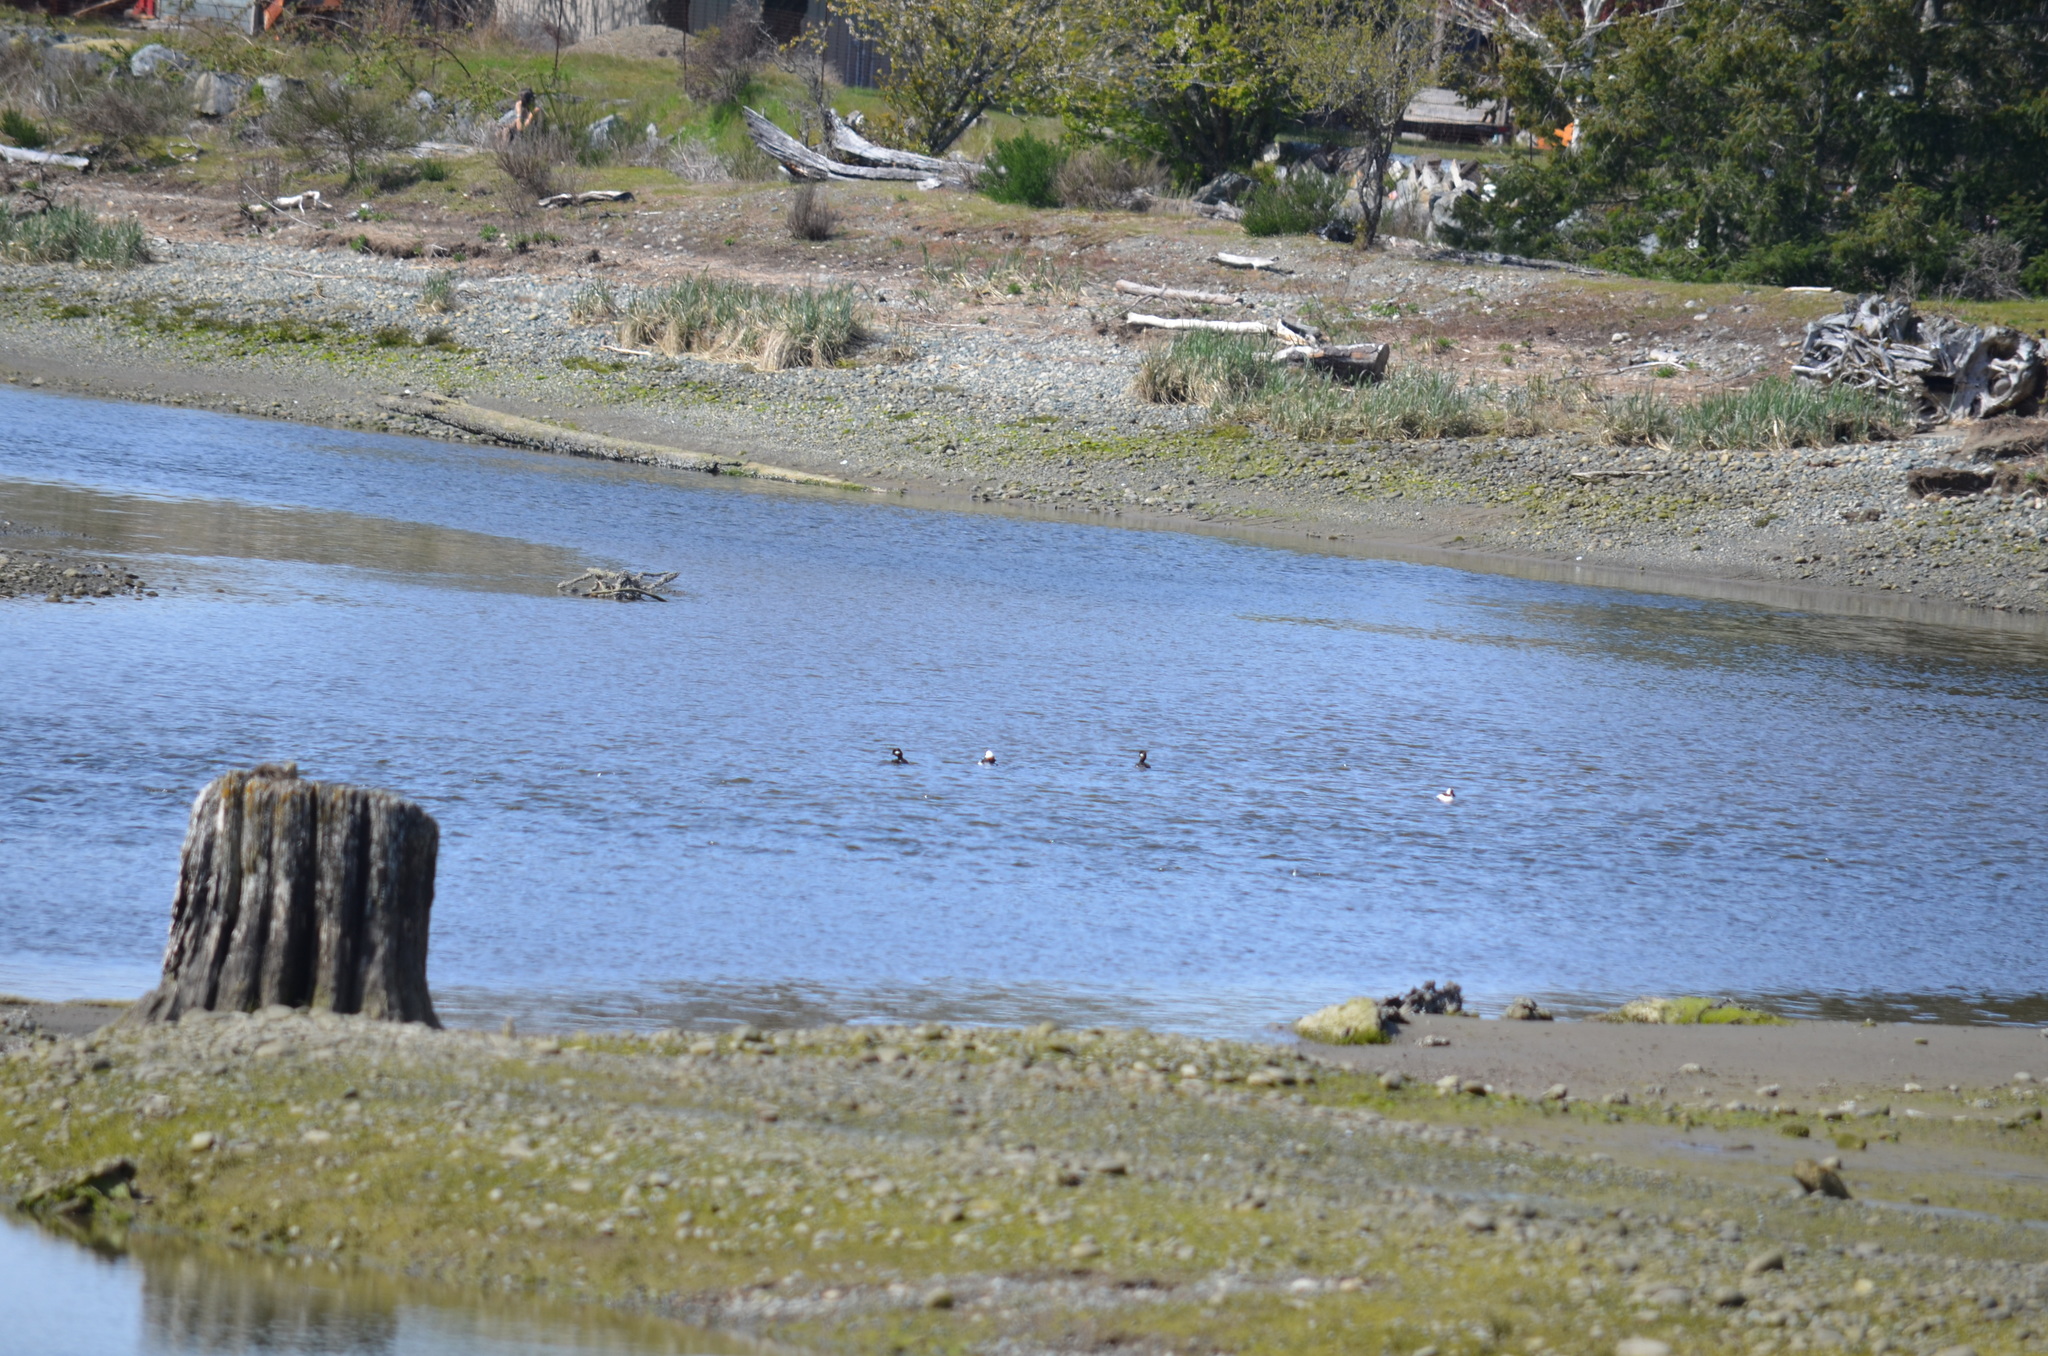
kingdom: Animalia
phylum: Chordata
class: Aves
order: Anseriformes
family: Anatidae
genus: Bucephala
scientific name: Bucephala albeola
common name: Bufflehead
